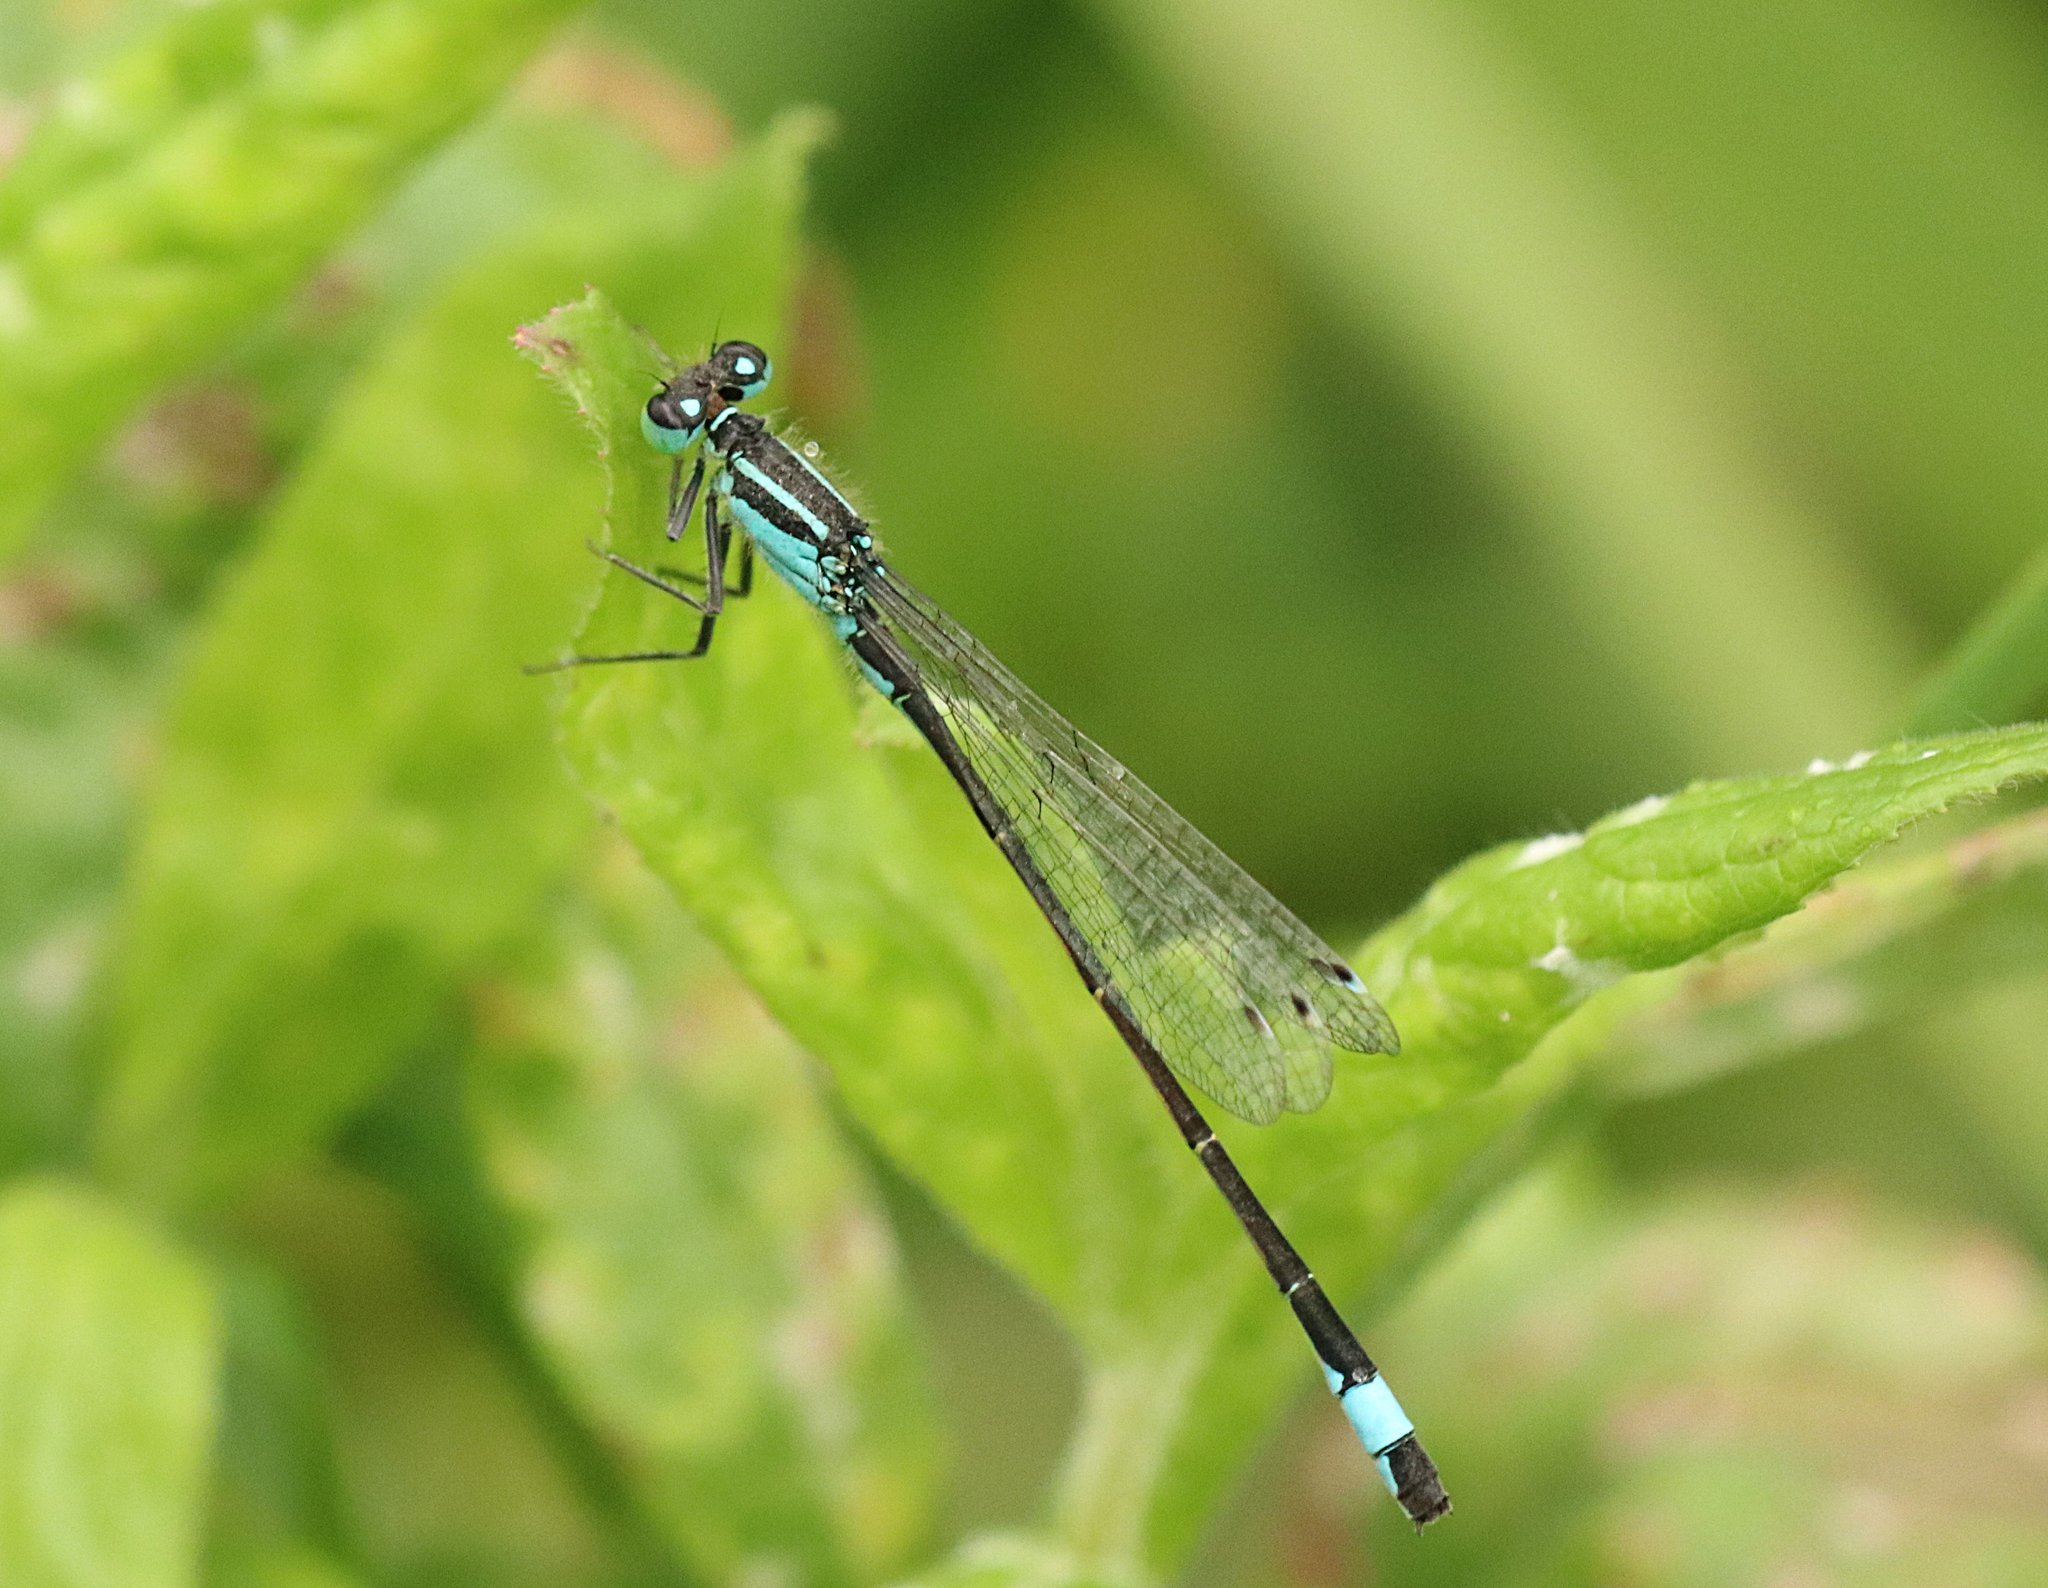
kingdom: Animalia
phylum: Arthropoda
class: Insecta
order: Odonata
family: Coenagrionidae
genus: Ischnura
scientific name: Ischnura elegans
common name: Blue-tailed damselfly
